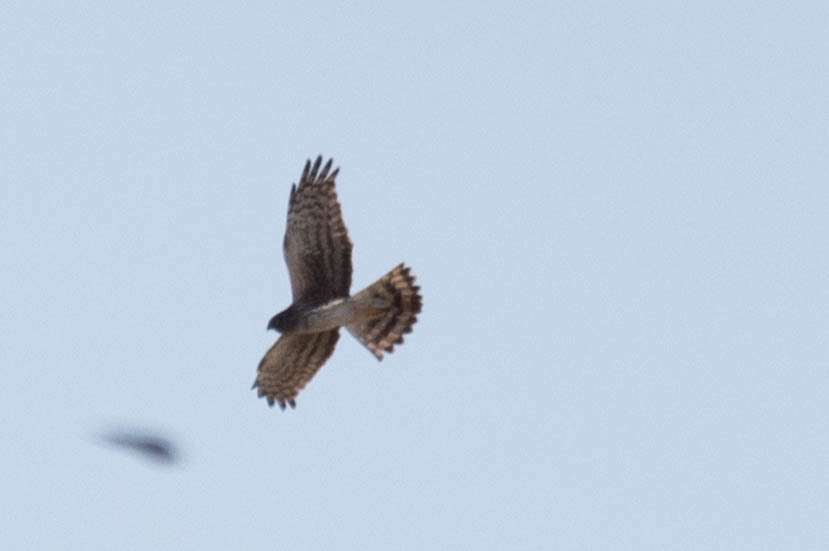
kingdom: Animalia
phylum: Chordata
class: Aves
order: Accipitriformes
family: Accipitridae
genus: Circus
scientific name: Circus cyaneus
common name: Hen harrier
